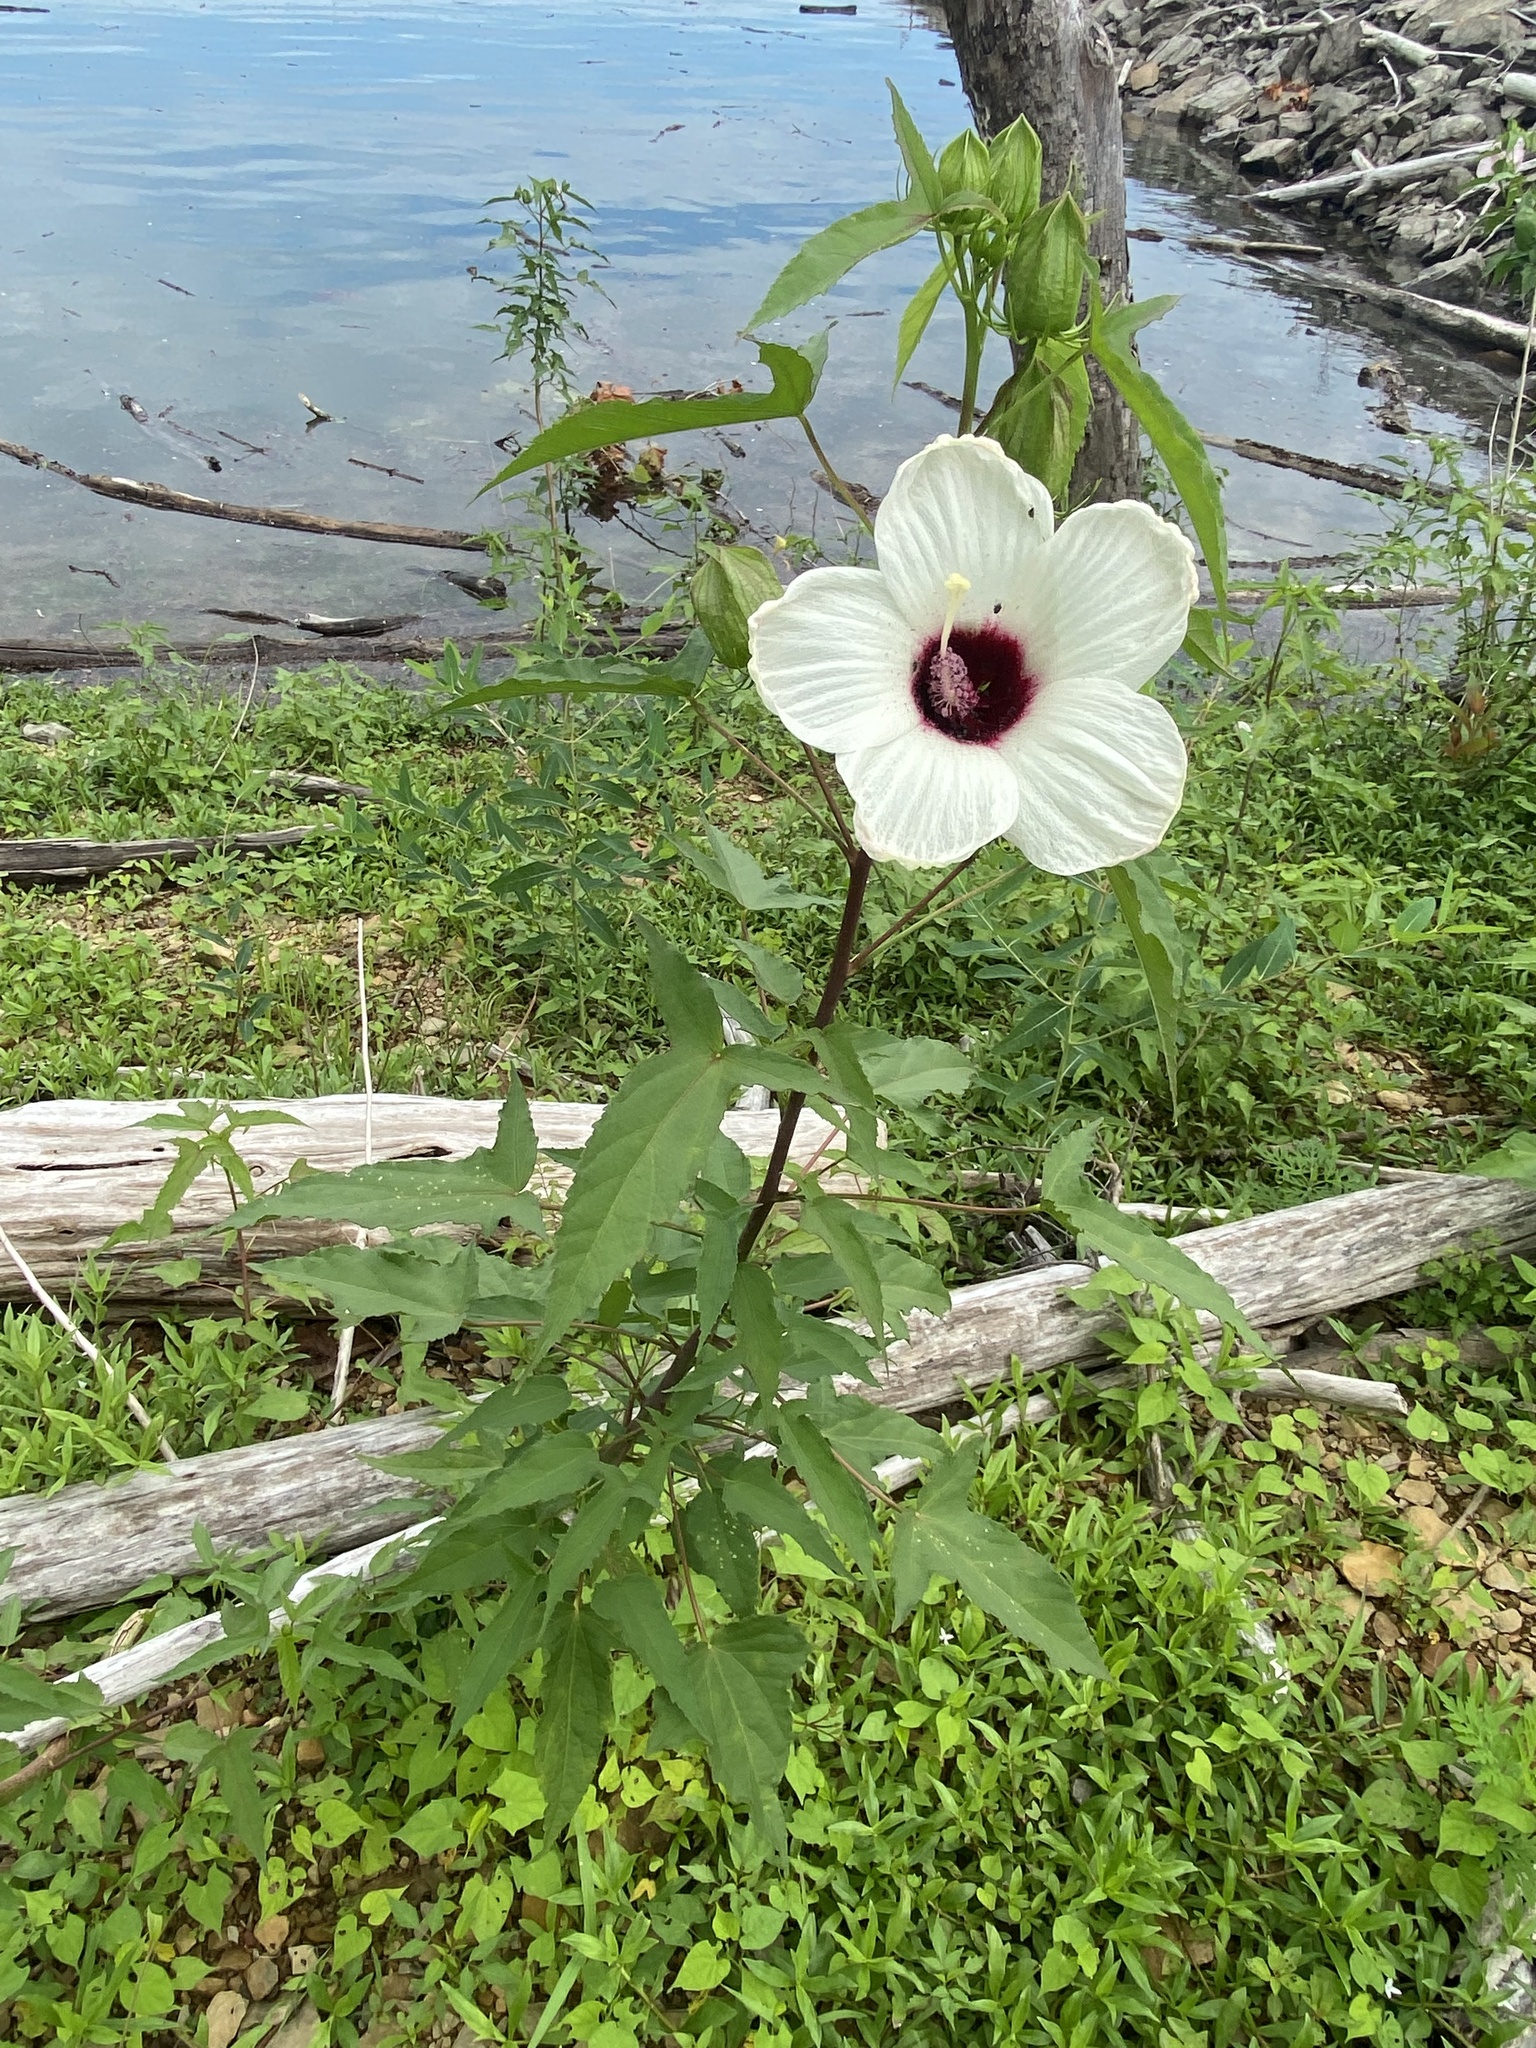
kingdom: Plantae
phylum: Tracheophyta
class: Magnoliopsida
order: Malvales
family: Malvaceae
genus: Hibiscus
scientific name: Hibiscus laevis
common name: Scarlet rose-mallow
